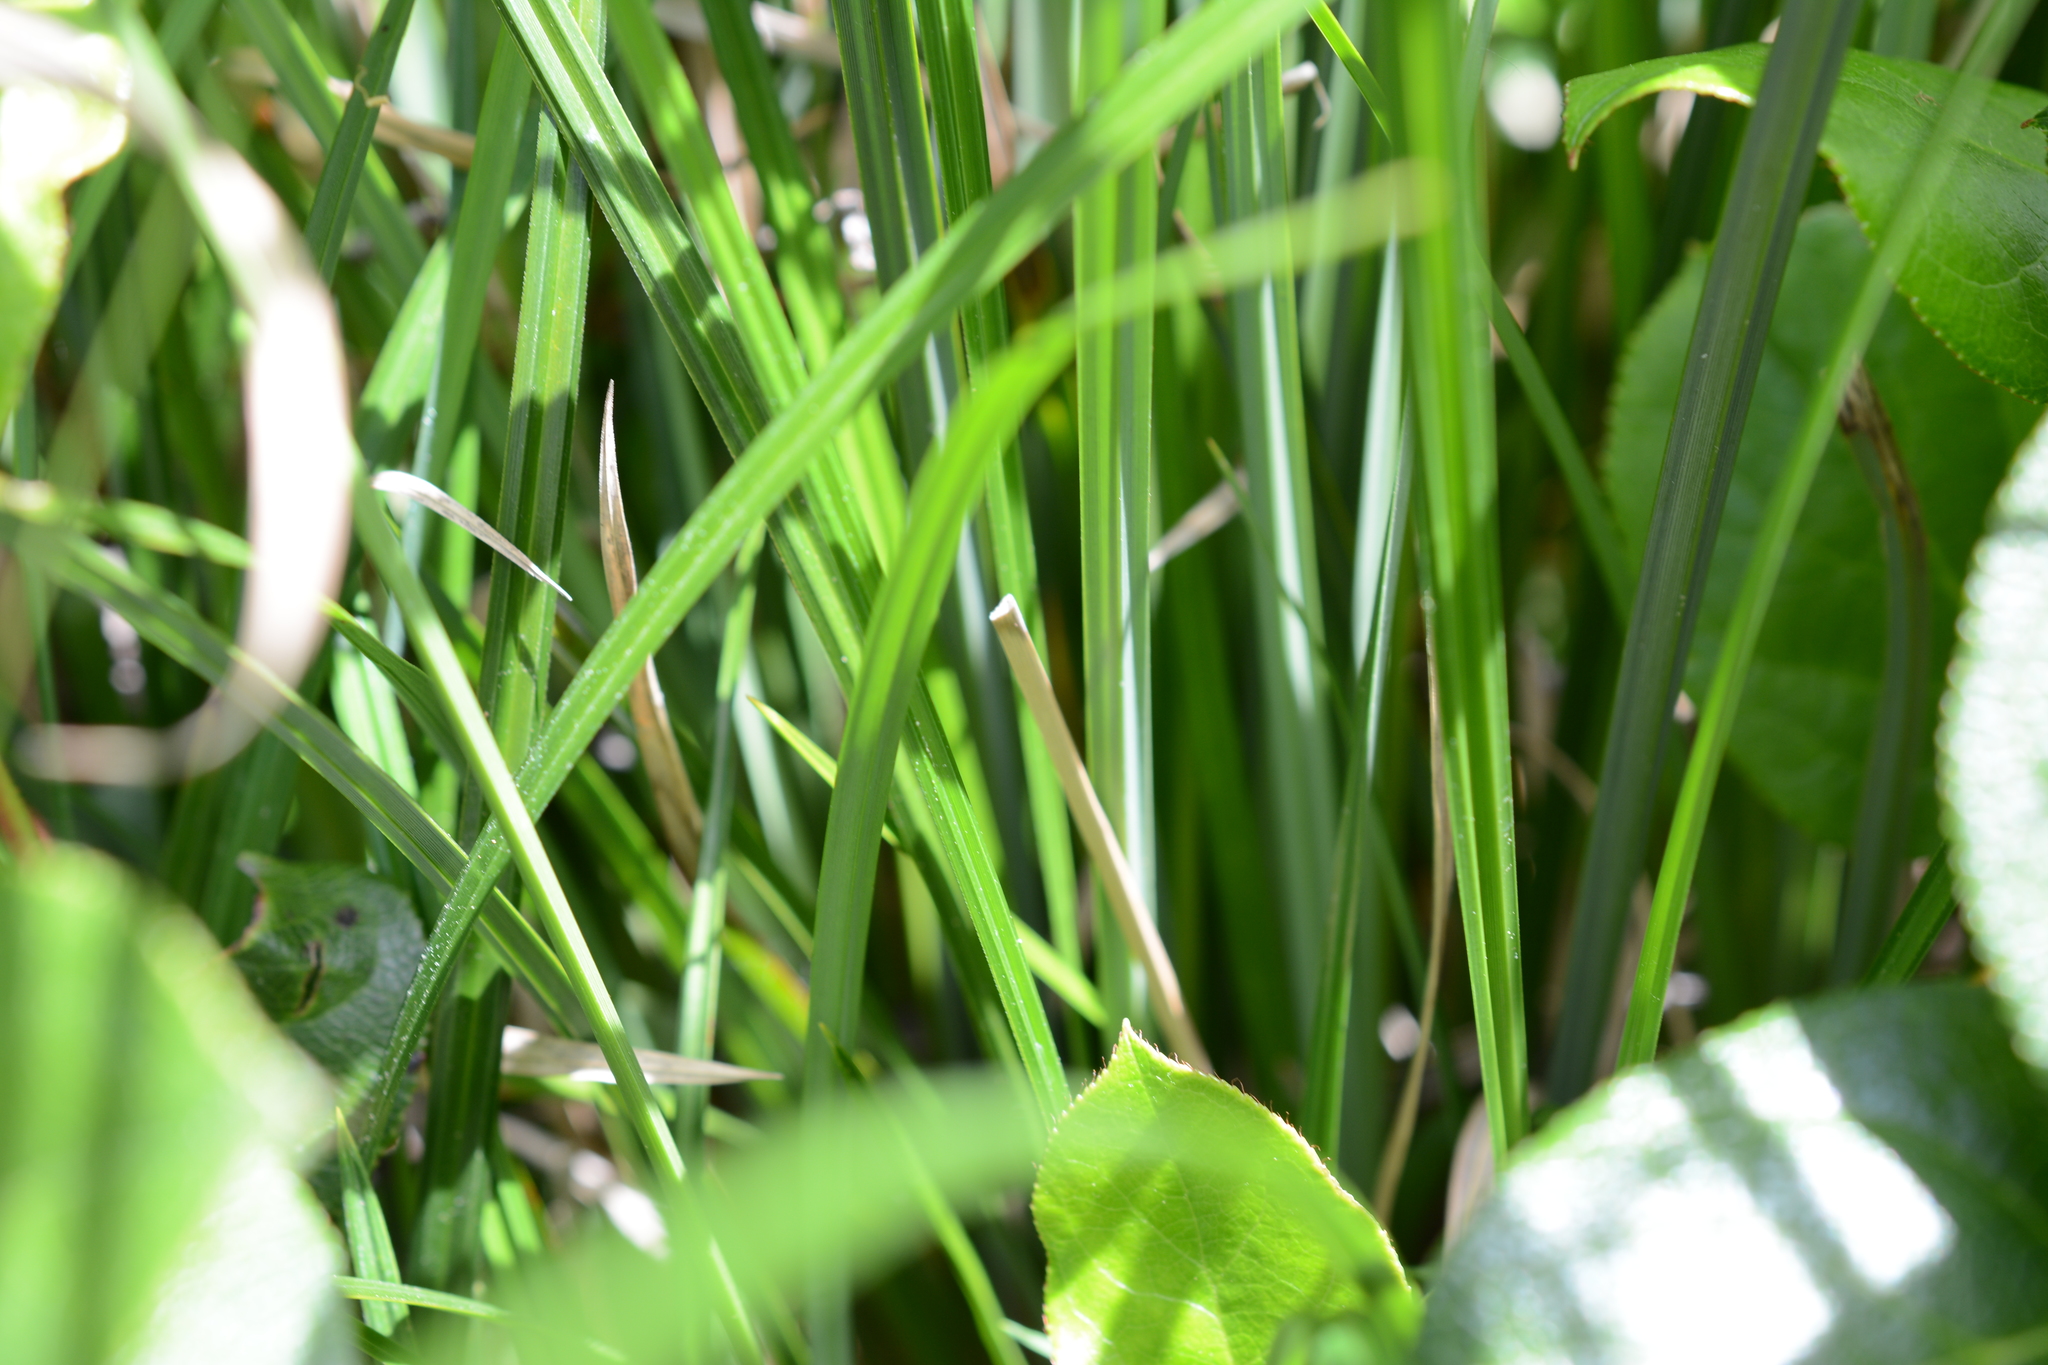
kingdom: Plantae
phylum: Tracheophyta
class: Liliopsida
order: Poales
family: Cyperaceae
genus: Carex
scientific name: Carex obnupta
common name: Slough sedge
